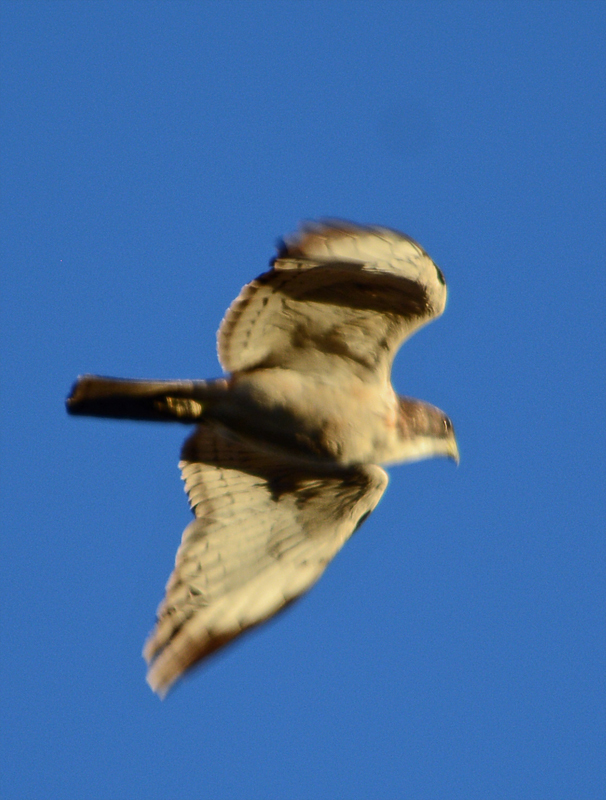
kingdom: Animalia
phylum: Chordata
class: Aves
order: Accipitriformes
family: Accipitridae
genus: Buteo
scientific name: Buteo brachyurus
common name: Short-tailed hawk
